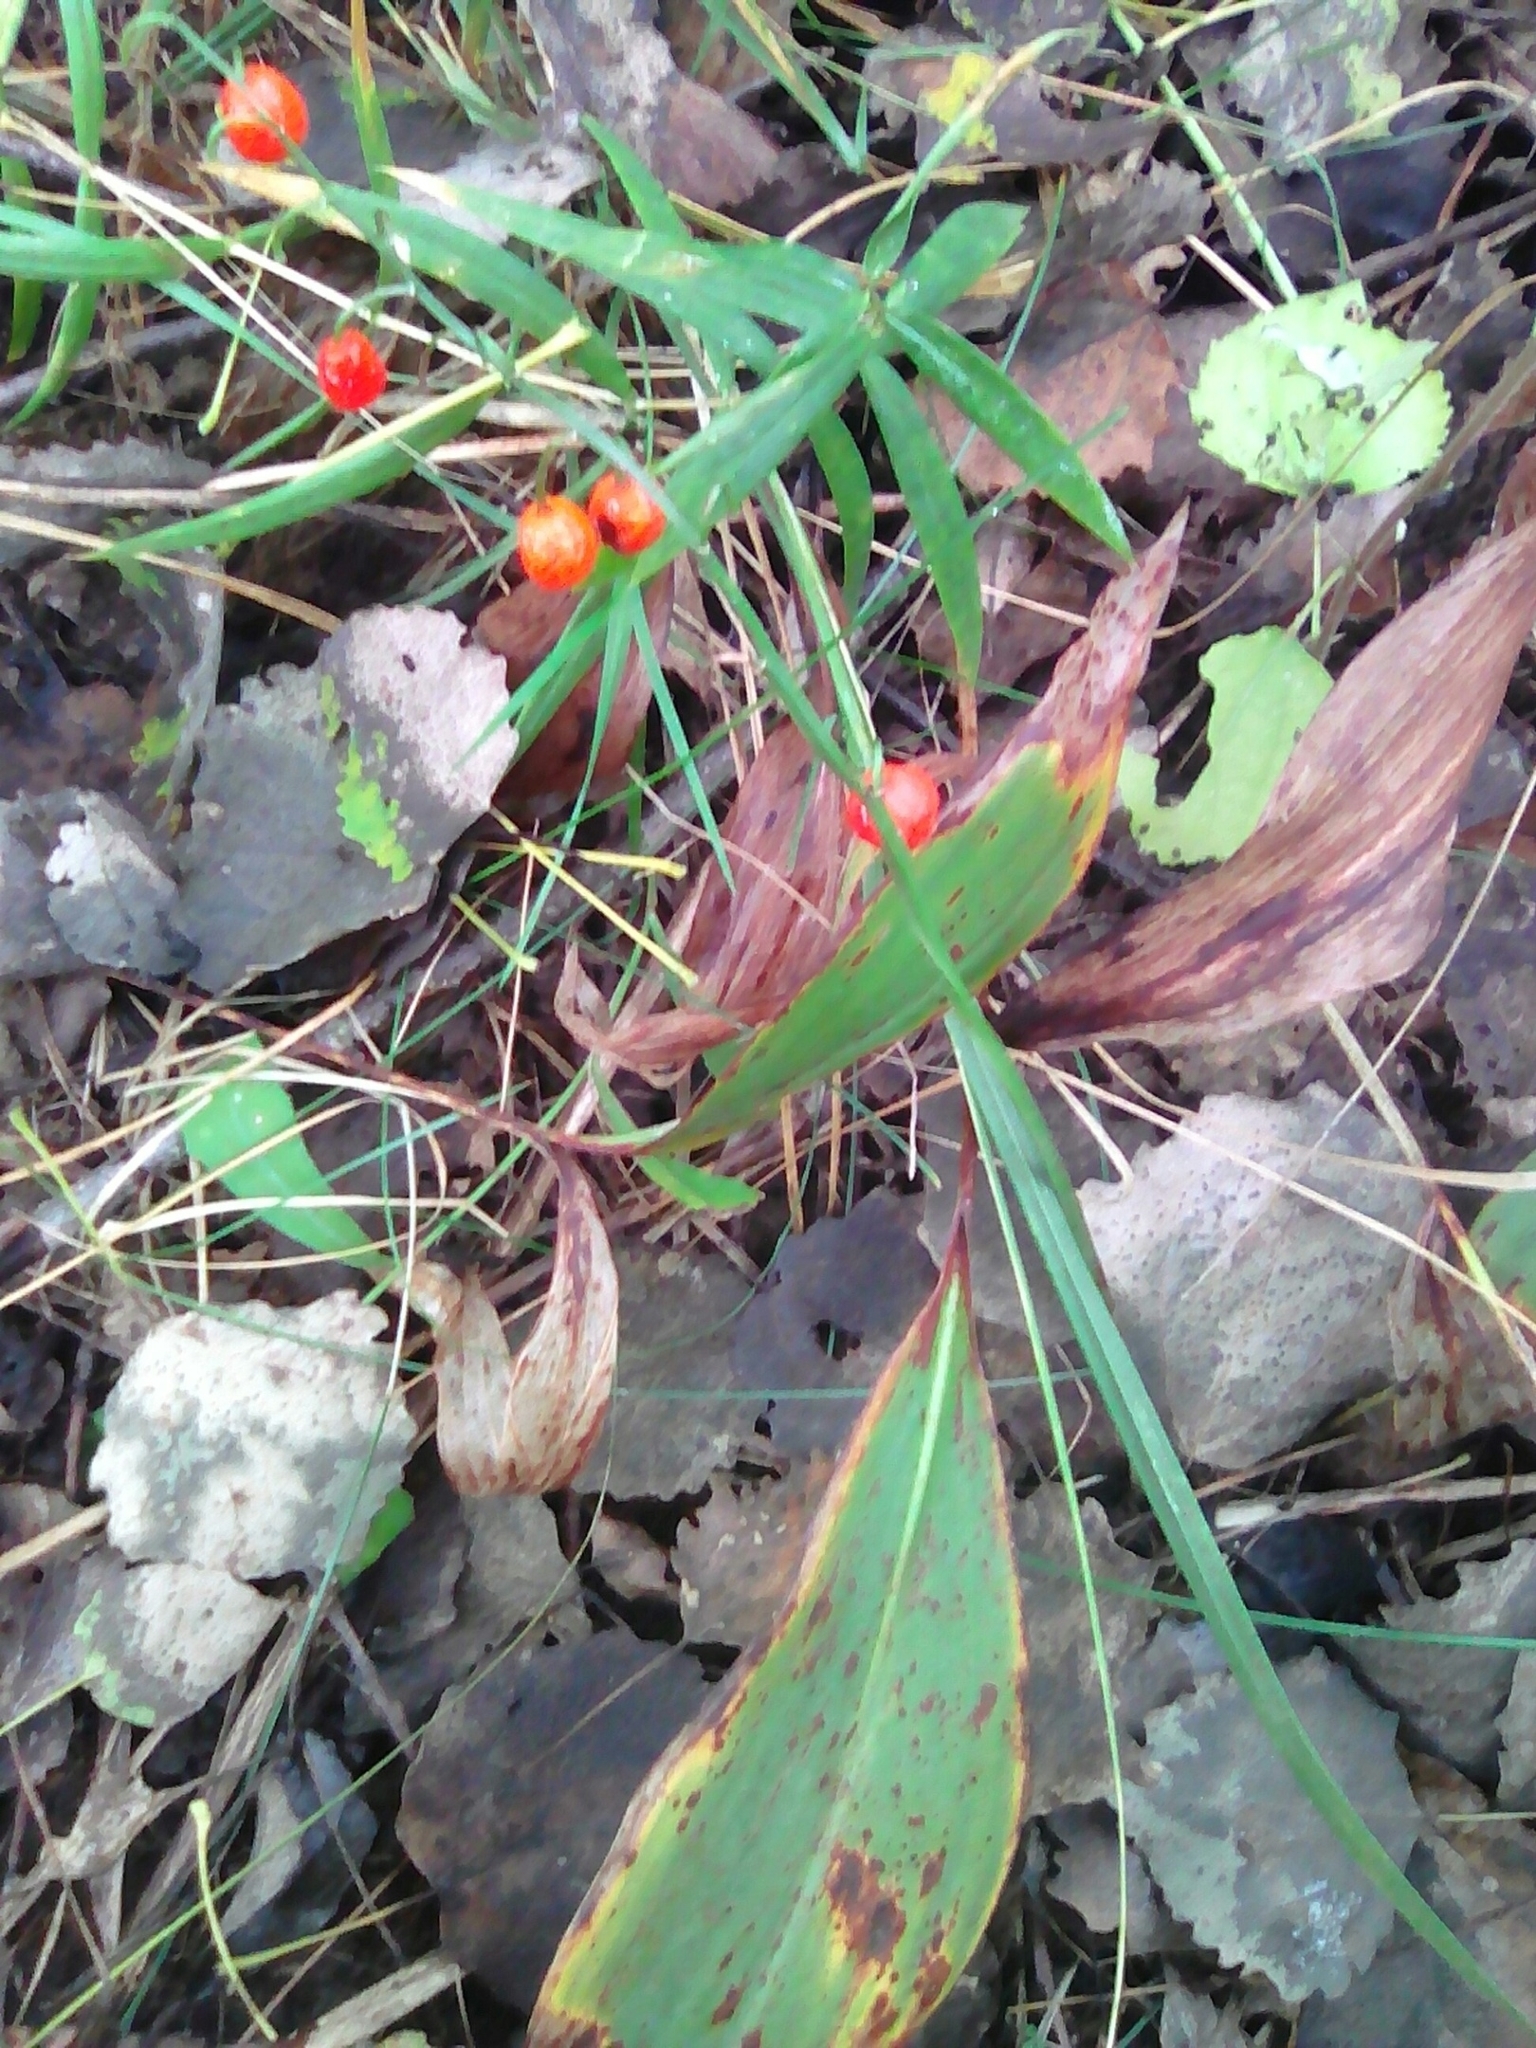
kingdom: Plantae
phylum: Tracheophyta
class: Liliopsida
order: Asparagales
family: Asparagaceae
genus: Convallaria
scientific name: Convallaria majalis
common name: Lily-of-the-valley
